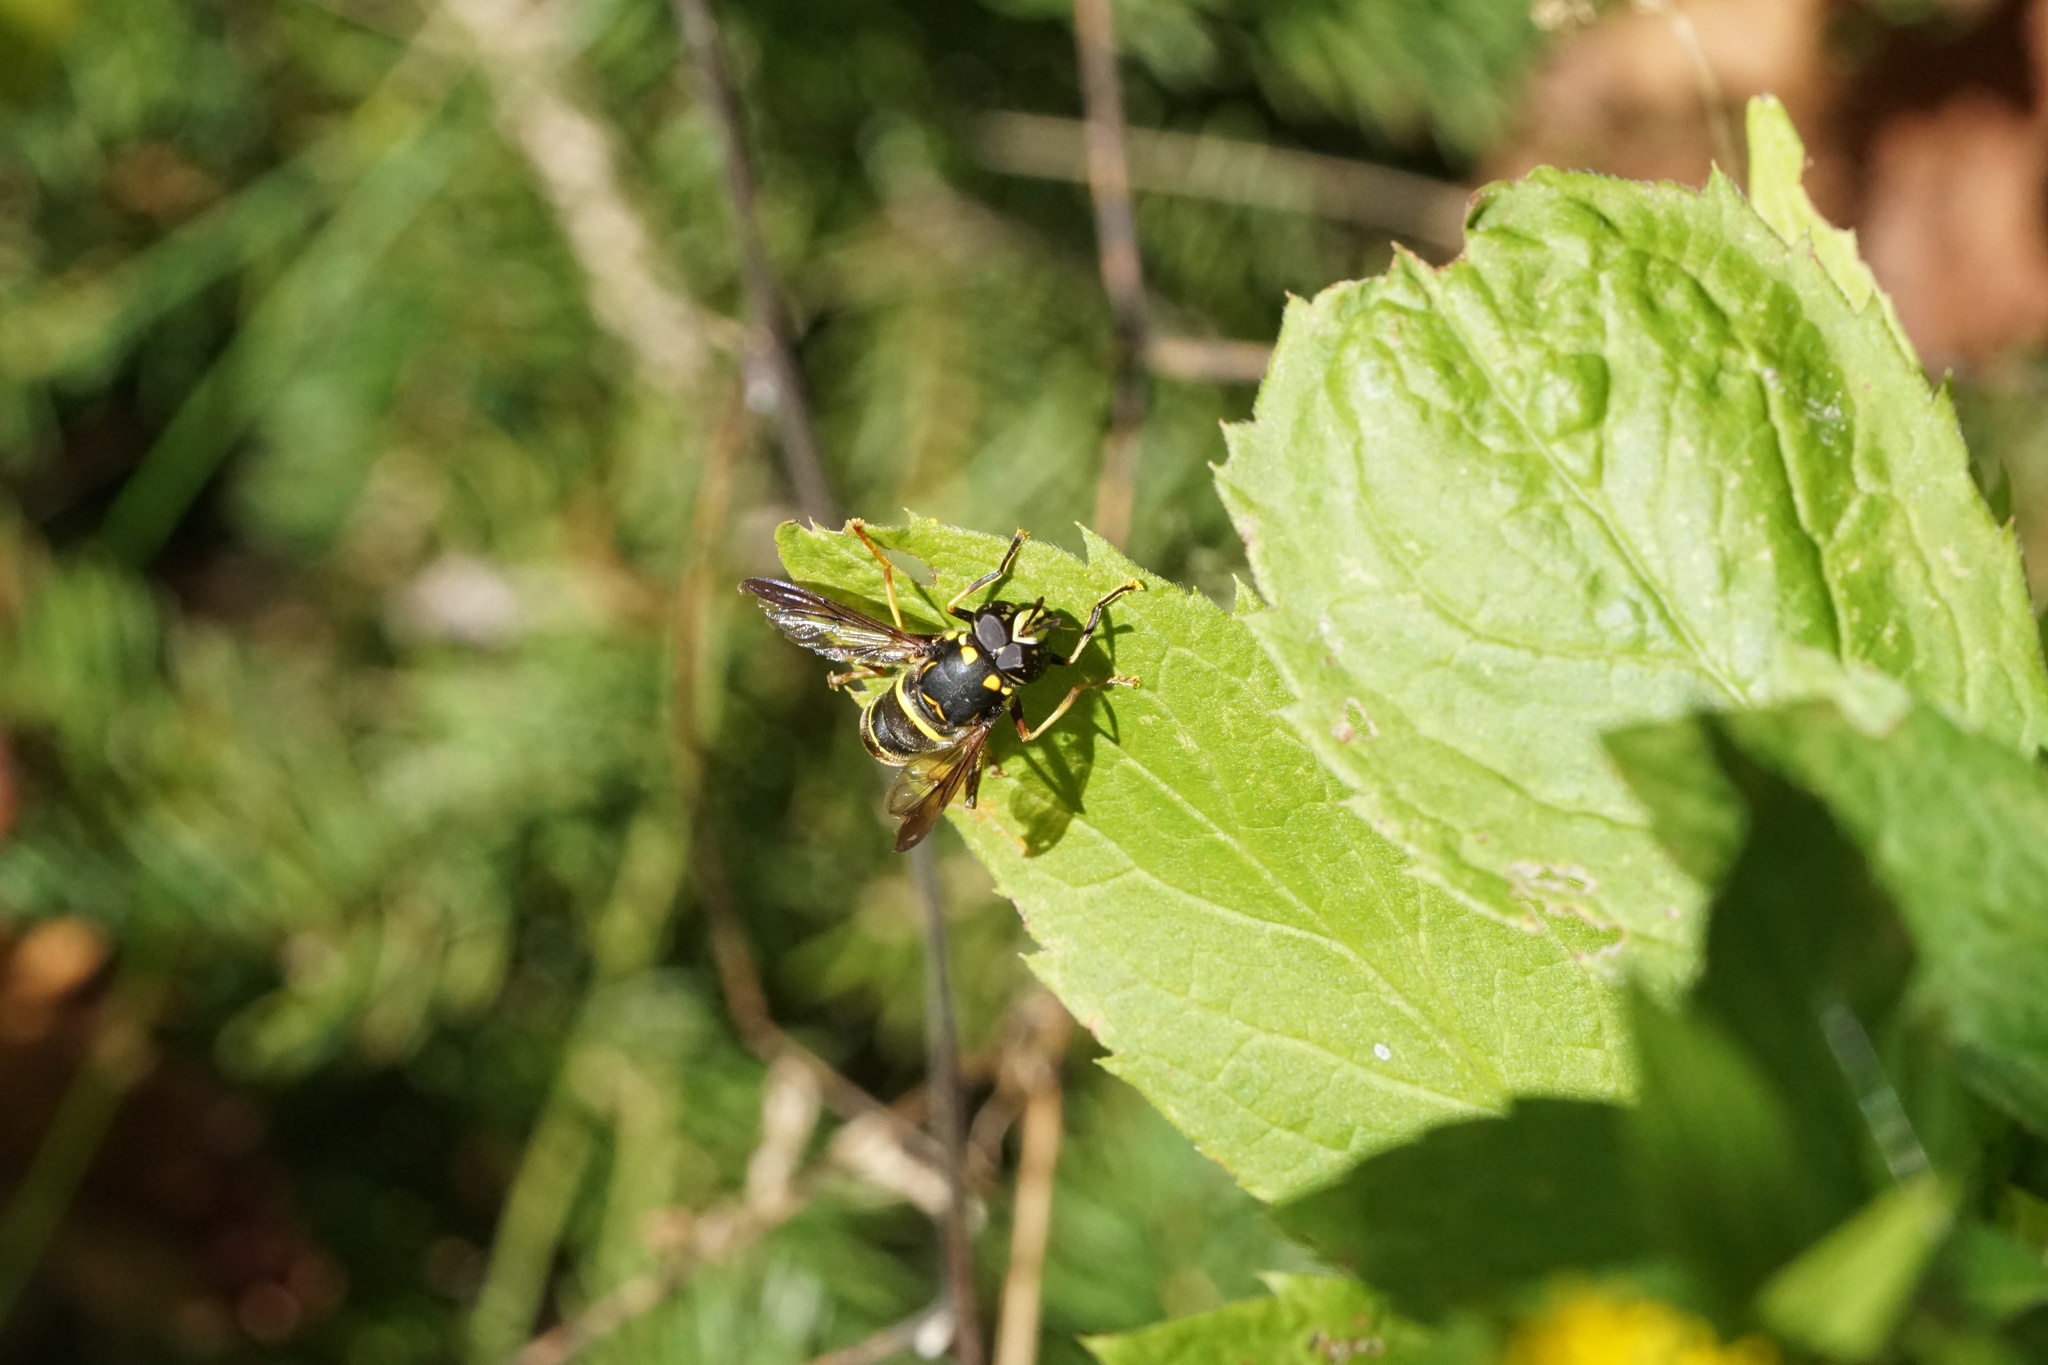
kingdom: Animalia
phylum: Arthropoda
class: Insecta
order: Diptera
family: Syrphidae
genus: Spilomyia
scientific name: Spilomyia sayi
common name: Four-lined hornet fly
